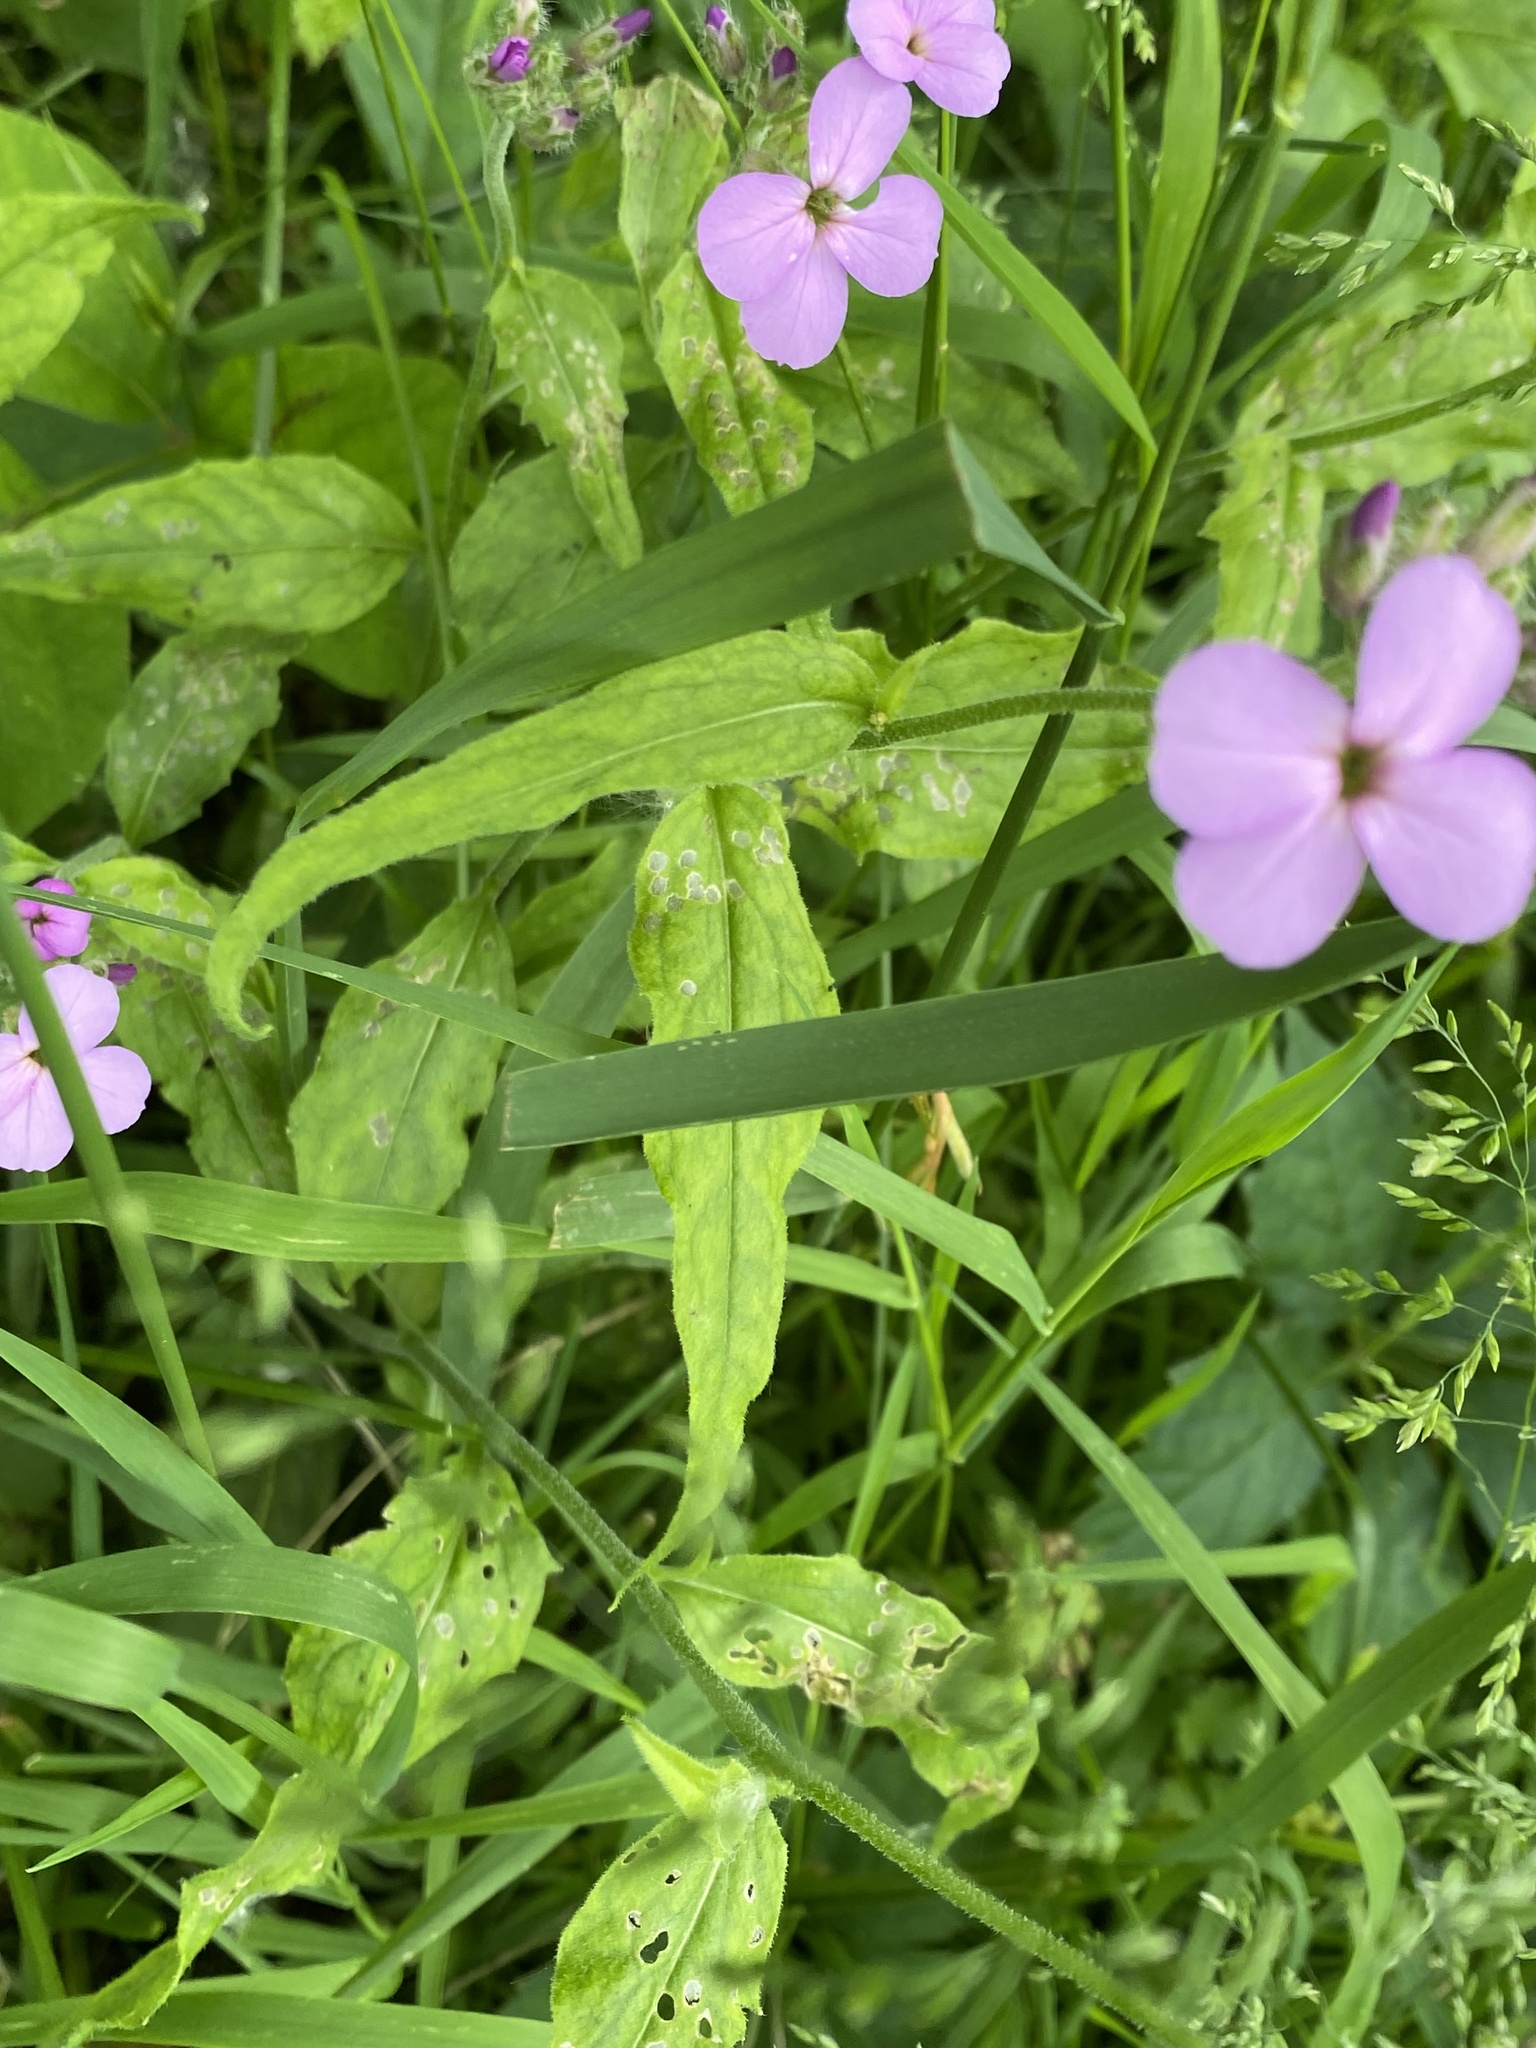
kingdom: Plantae
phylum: Tracheophyta
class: Magnoliopsida
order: Brassicales
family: Brassicaceae
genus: Hesperis
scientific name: Hesperis matronalis
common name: Dame's-violet
